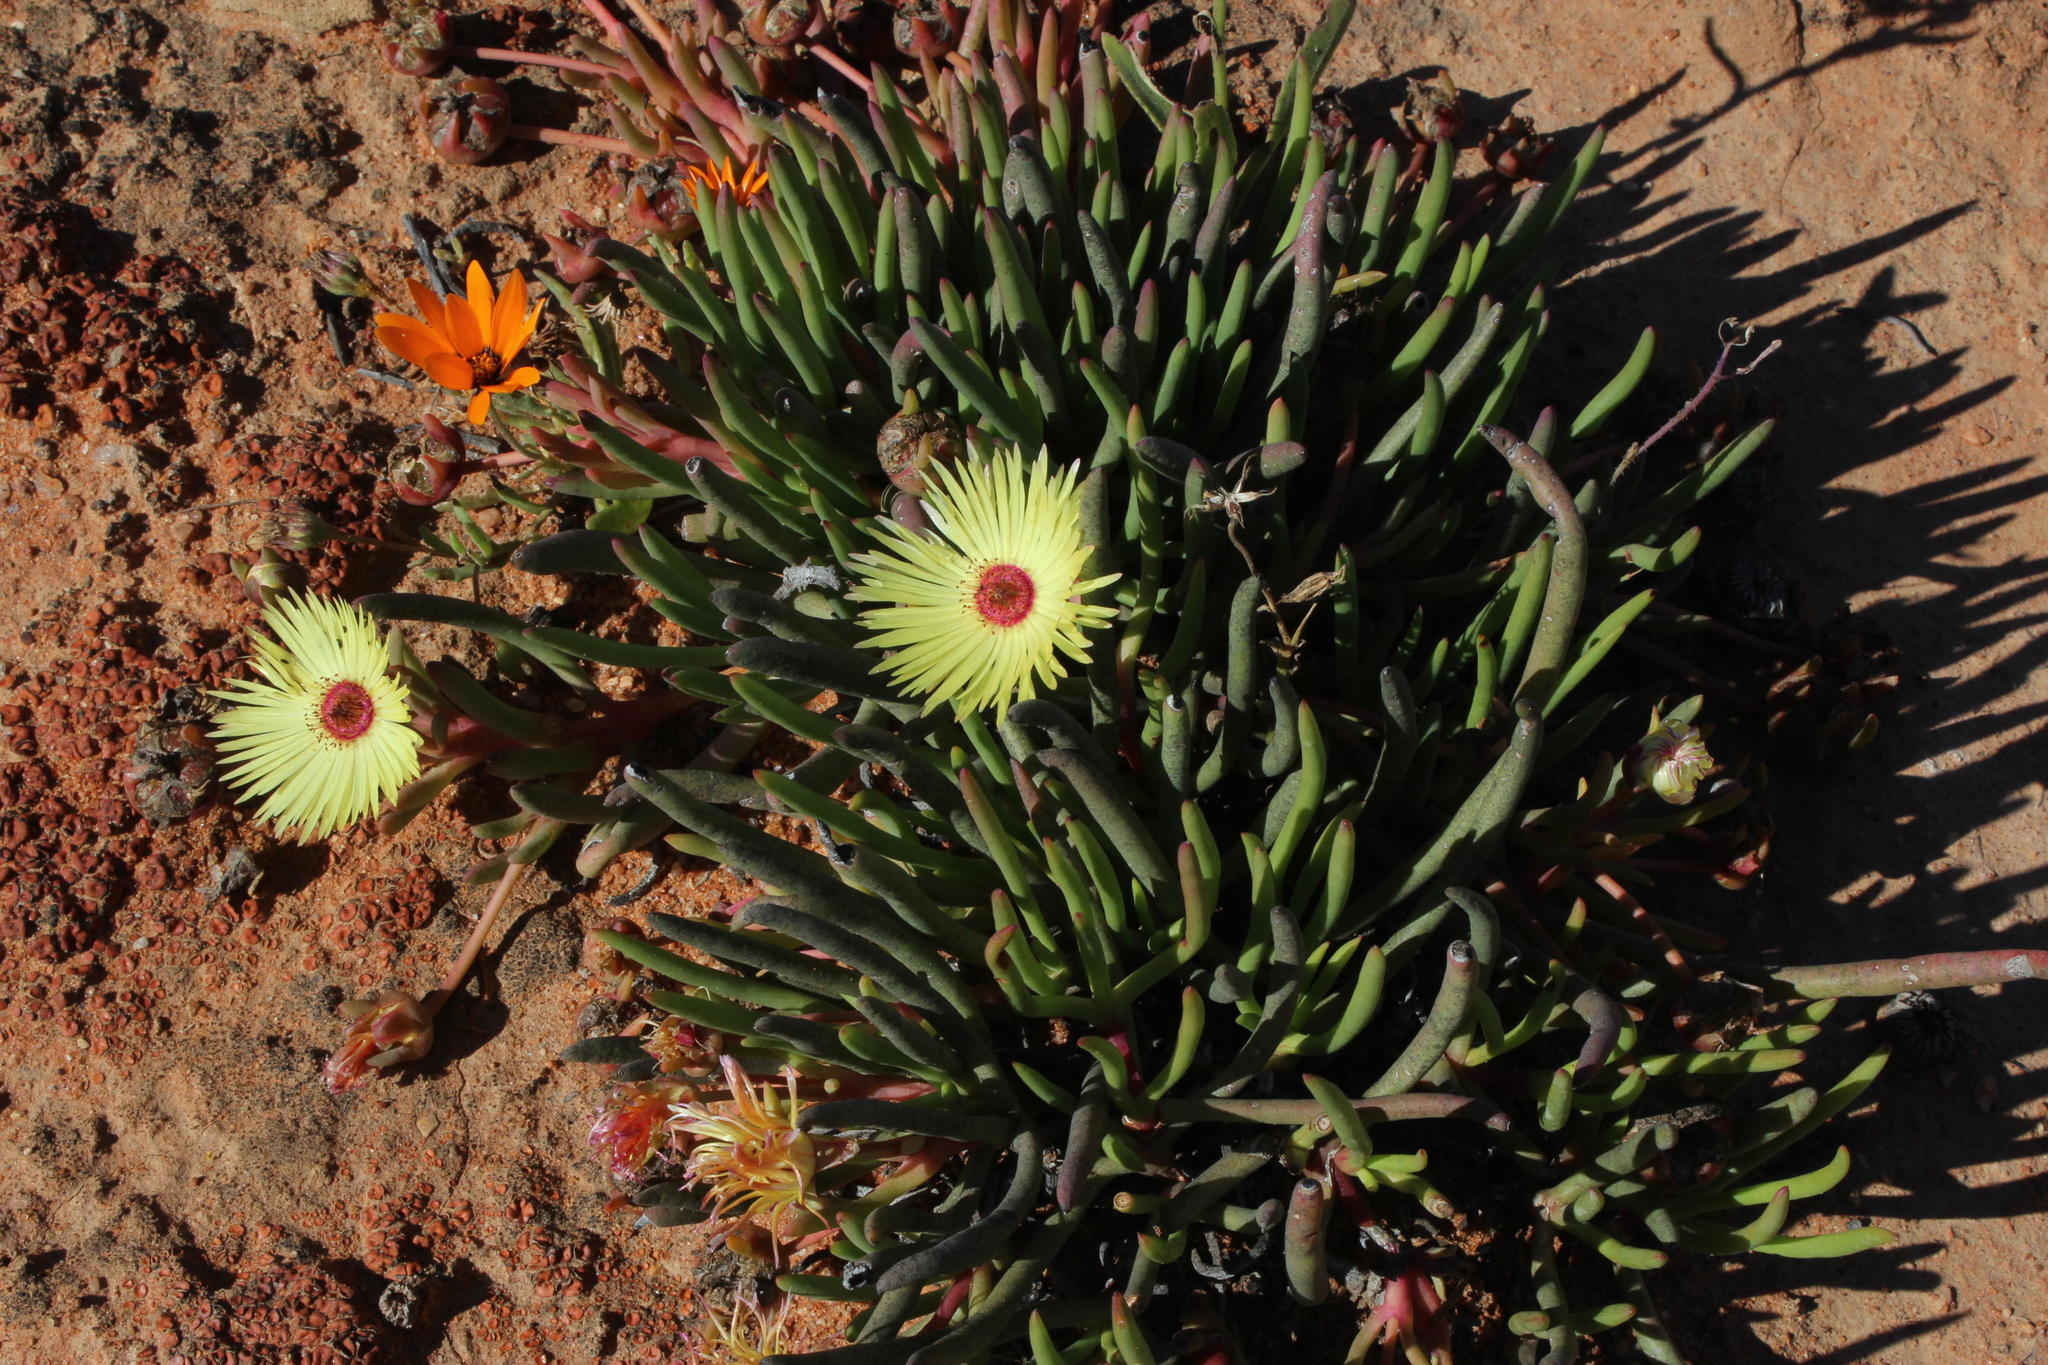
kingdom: Plantae
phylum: Tracheophyta
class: Magnoliopsida
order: Caryophyllales
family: Aizoaceae
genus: Cephalophyllum
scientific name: Cephalophyllum pillansii
